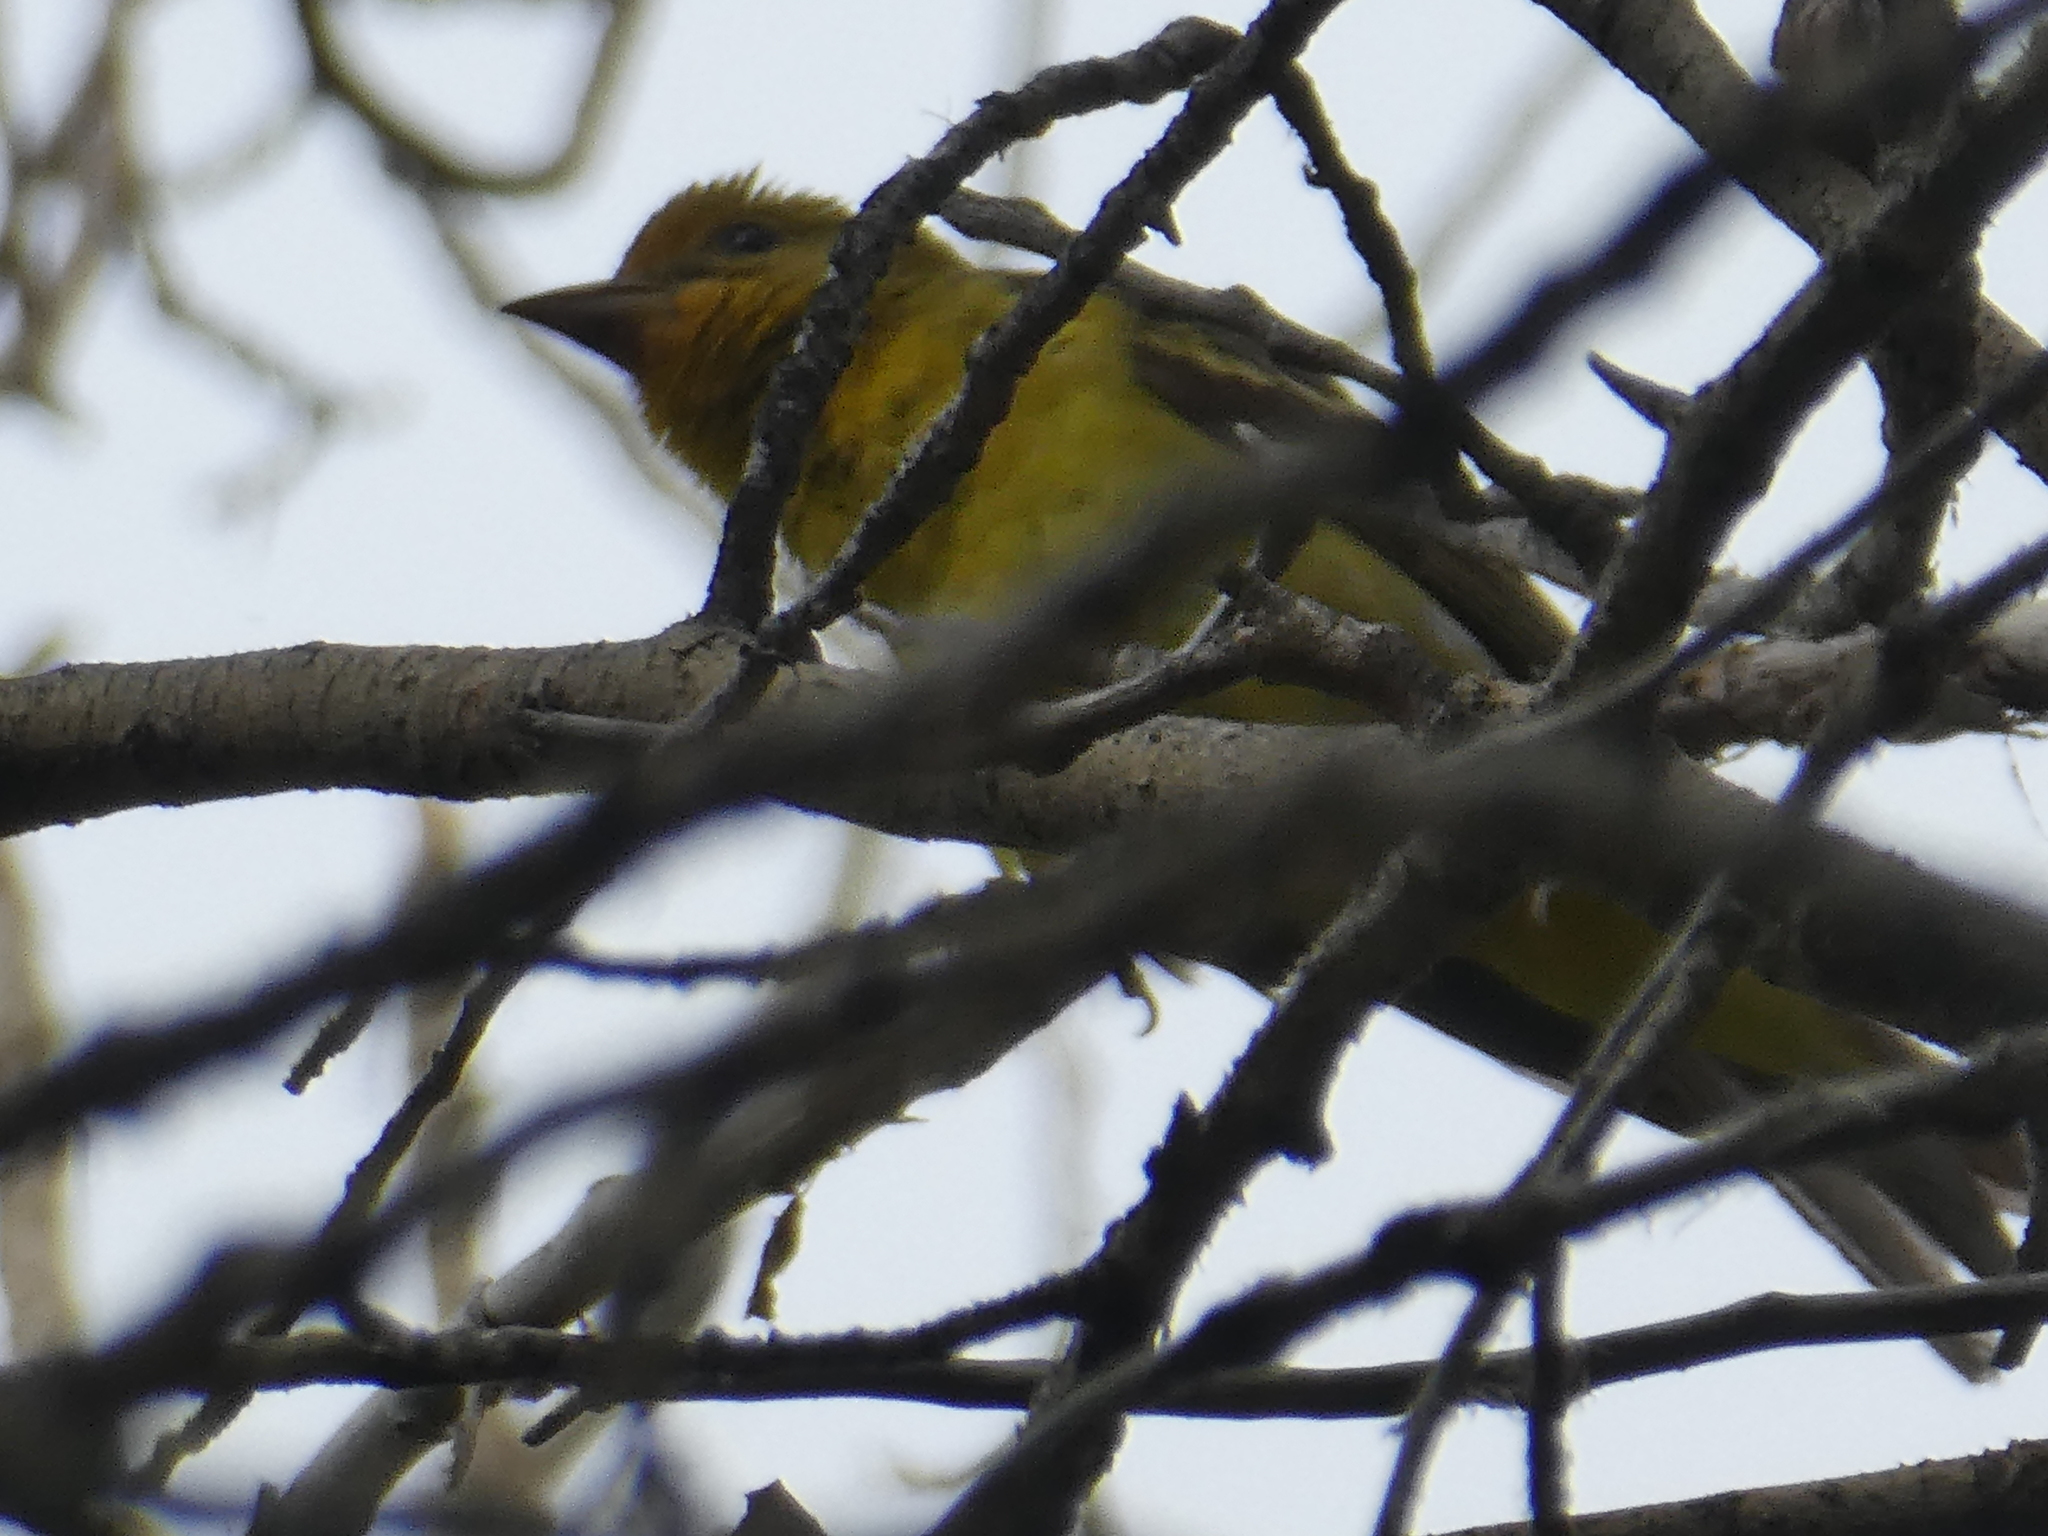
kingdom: Animalia
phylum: Chordata
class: Aves
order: Passeriformes
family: Cardinalidae
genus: Piranga
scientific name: Piranga ludoviciana
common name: Western tanager
